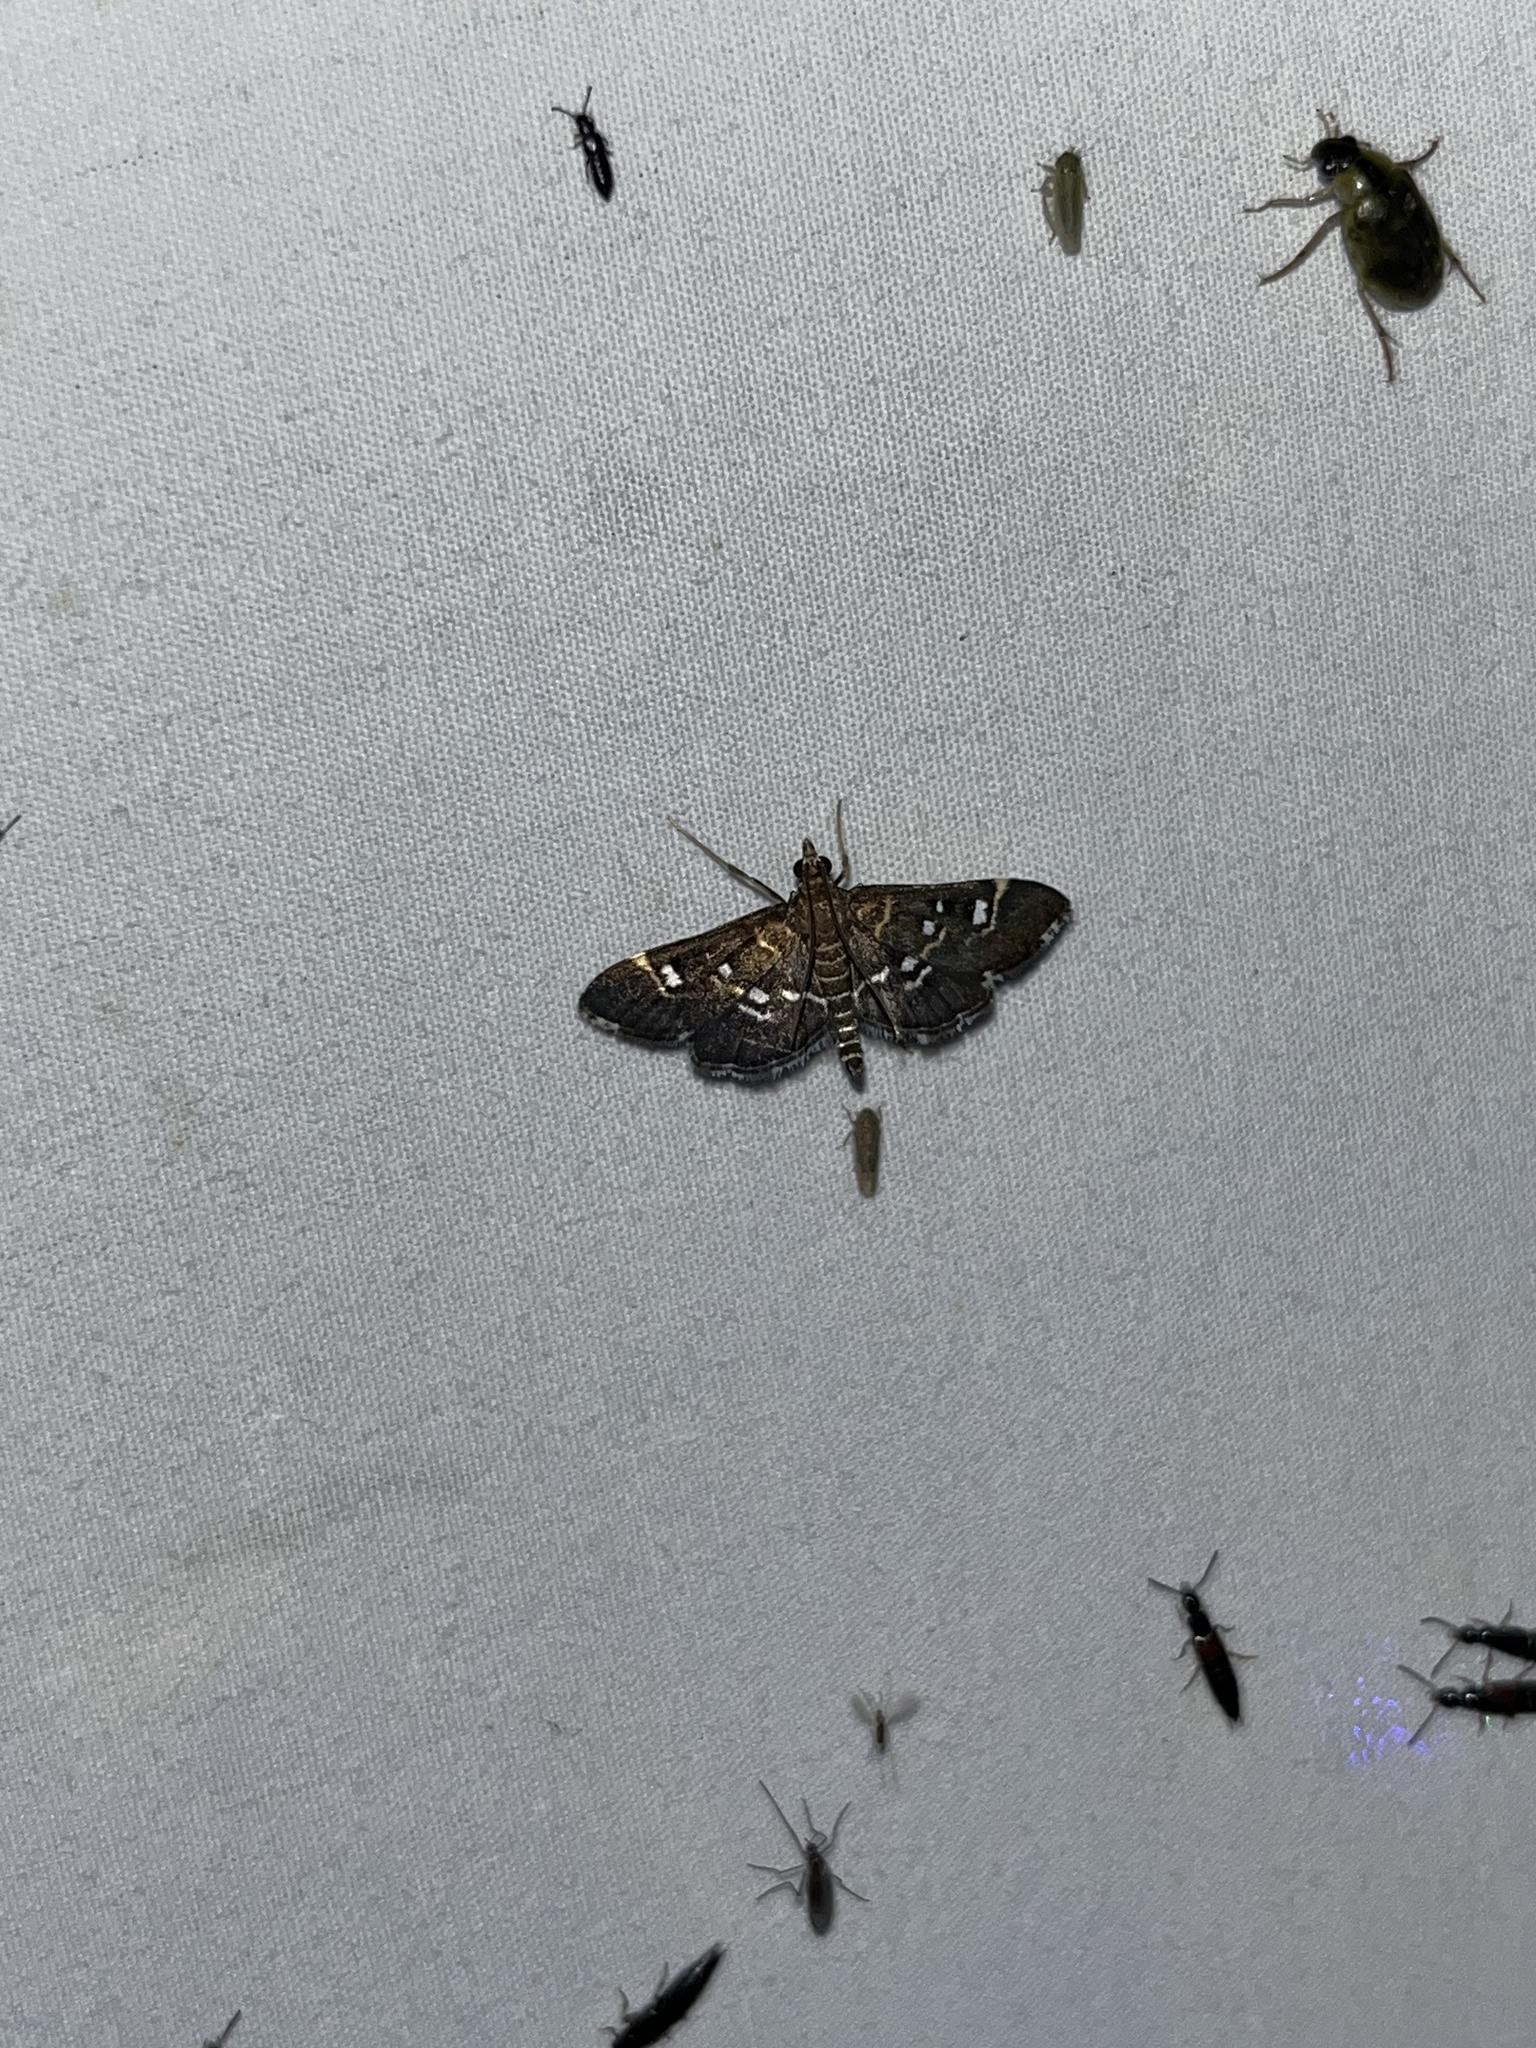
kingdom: Animalia
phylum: Arthropoda
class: Insecta
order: Lepidoptera
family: Crambidae
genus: Diathrausta
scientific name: Diathrausta harlequinalis
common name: Harlequin webworm moth
